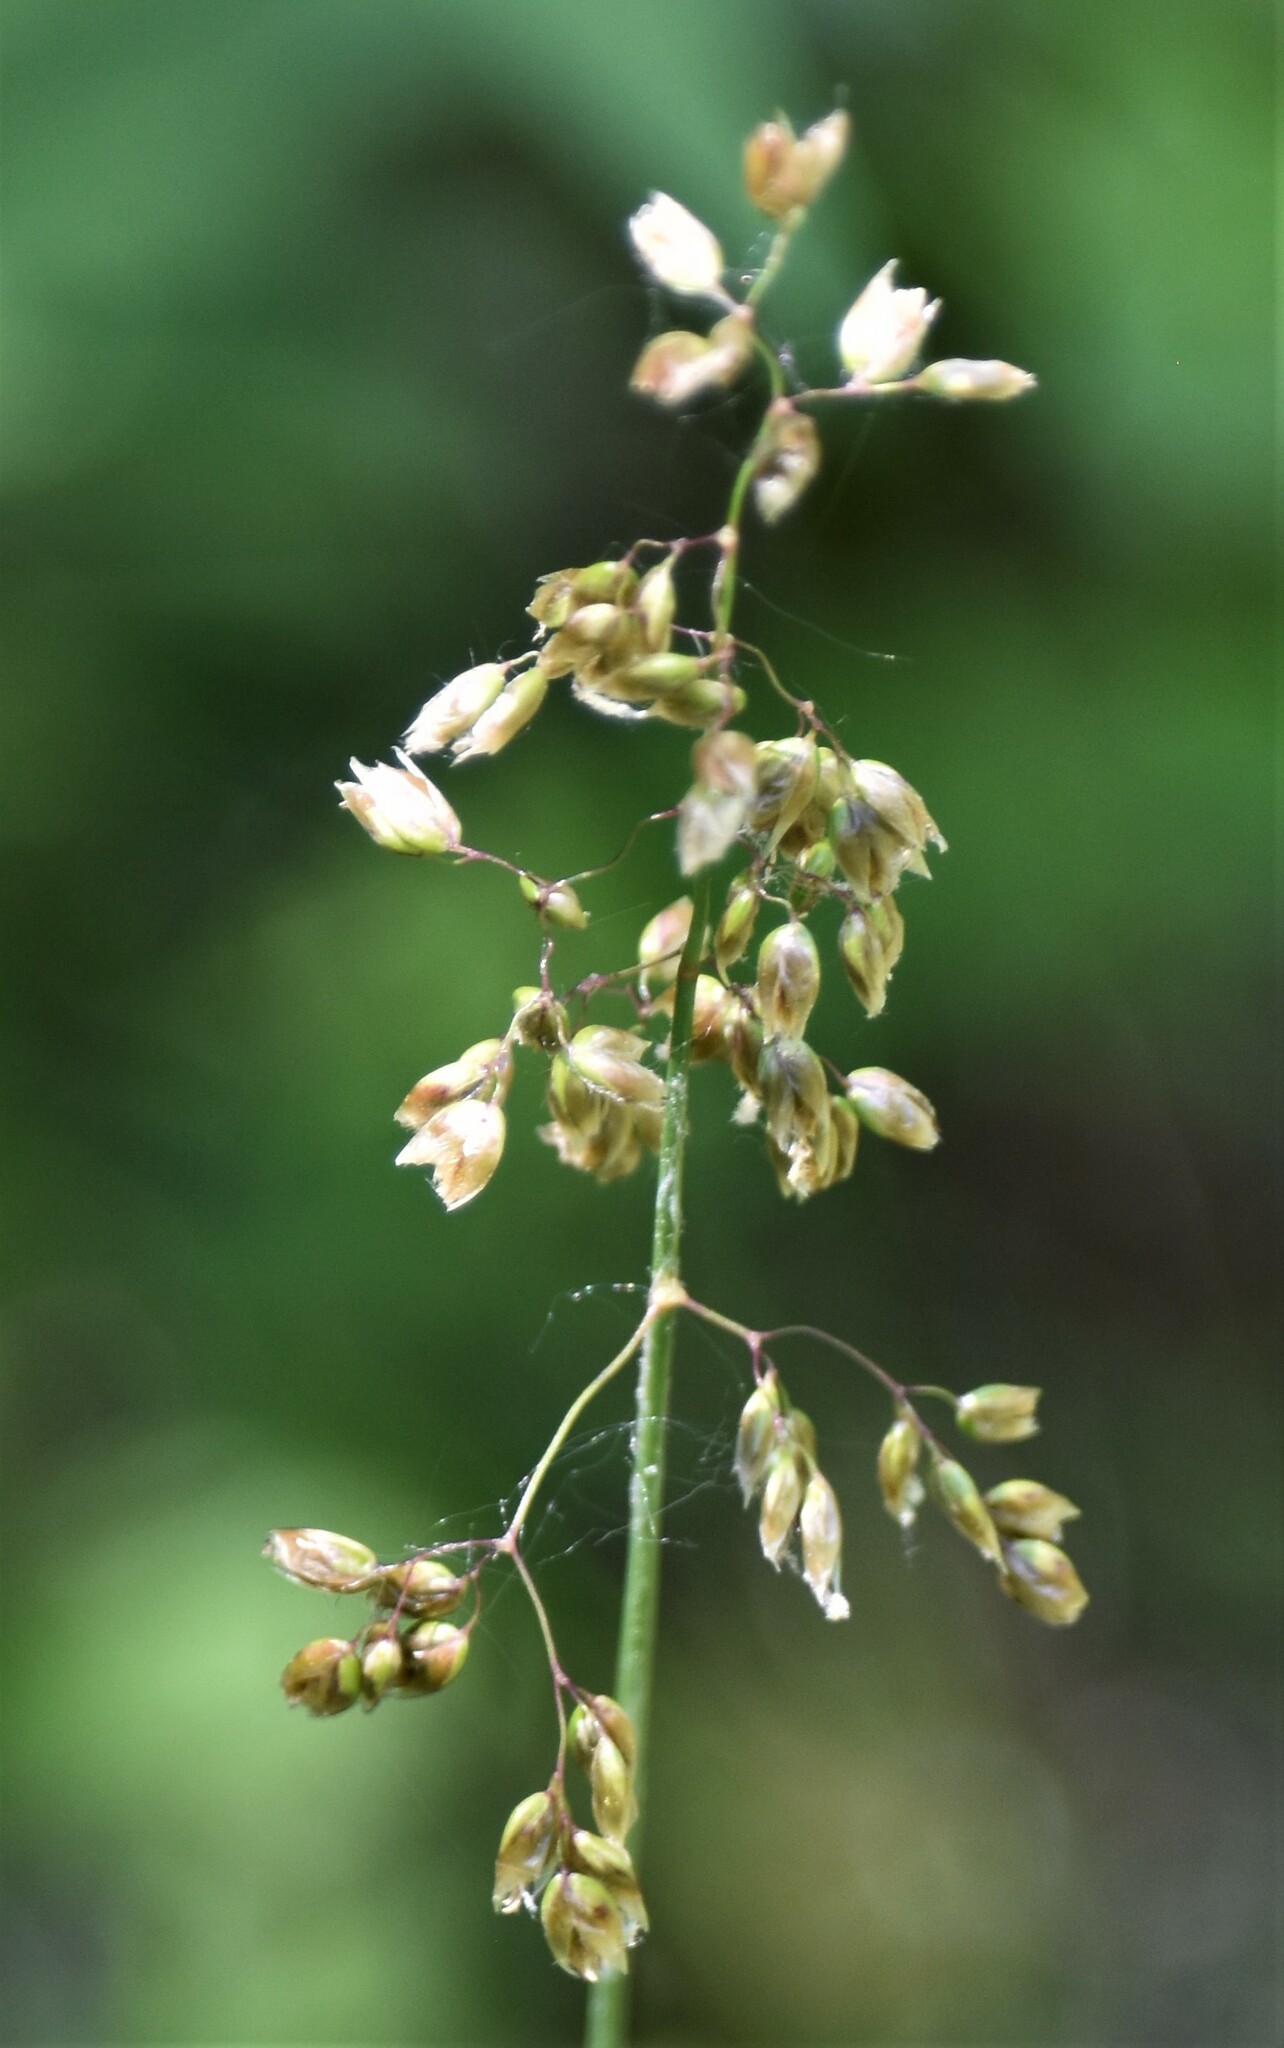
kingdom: Plantae
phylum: Tracheophyta
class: Liliopsida
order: Poales
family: Poaceae
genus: Anthoxanthum
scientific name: Anthoxanthum nitens
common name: Holy grass
